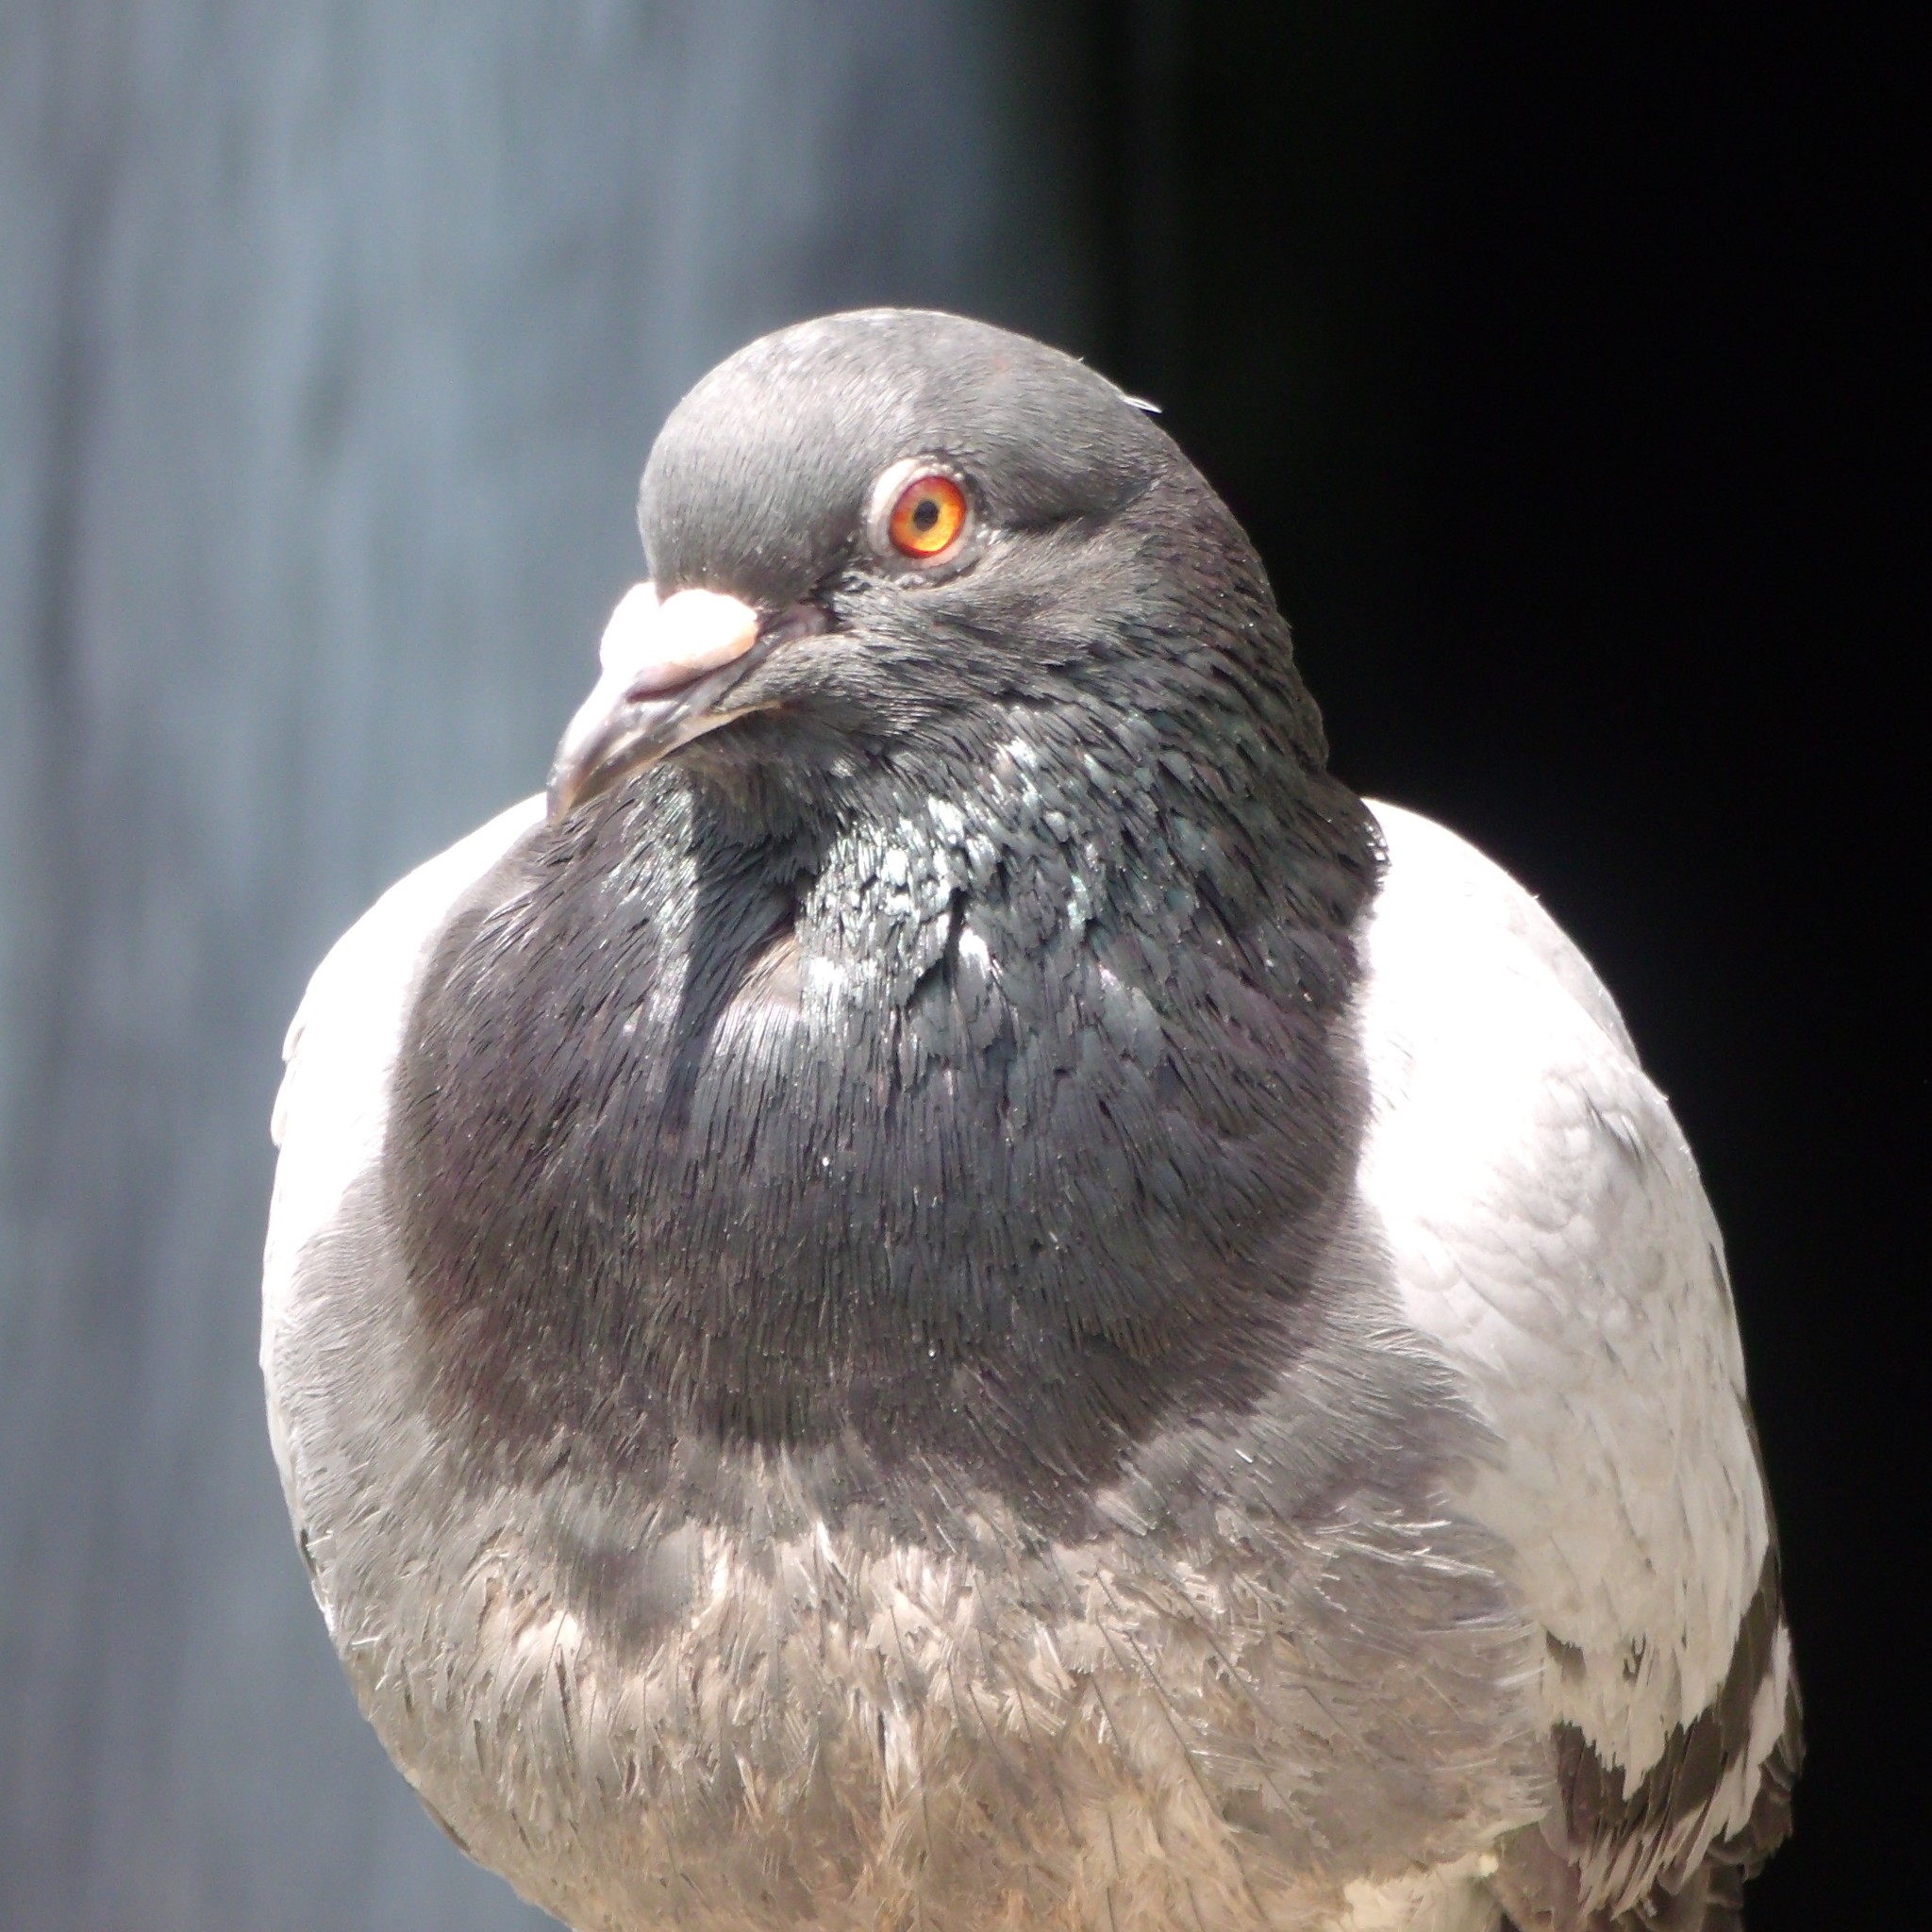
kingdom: Animalia
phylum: Chordata
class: Aves
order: Columbiformes
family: Columbidae
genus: Columba
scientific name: Columba livia
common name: Rock pigeon
